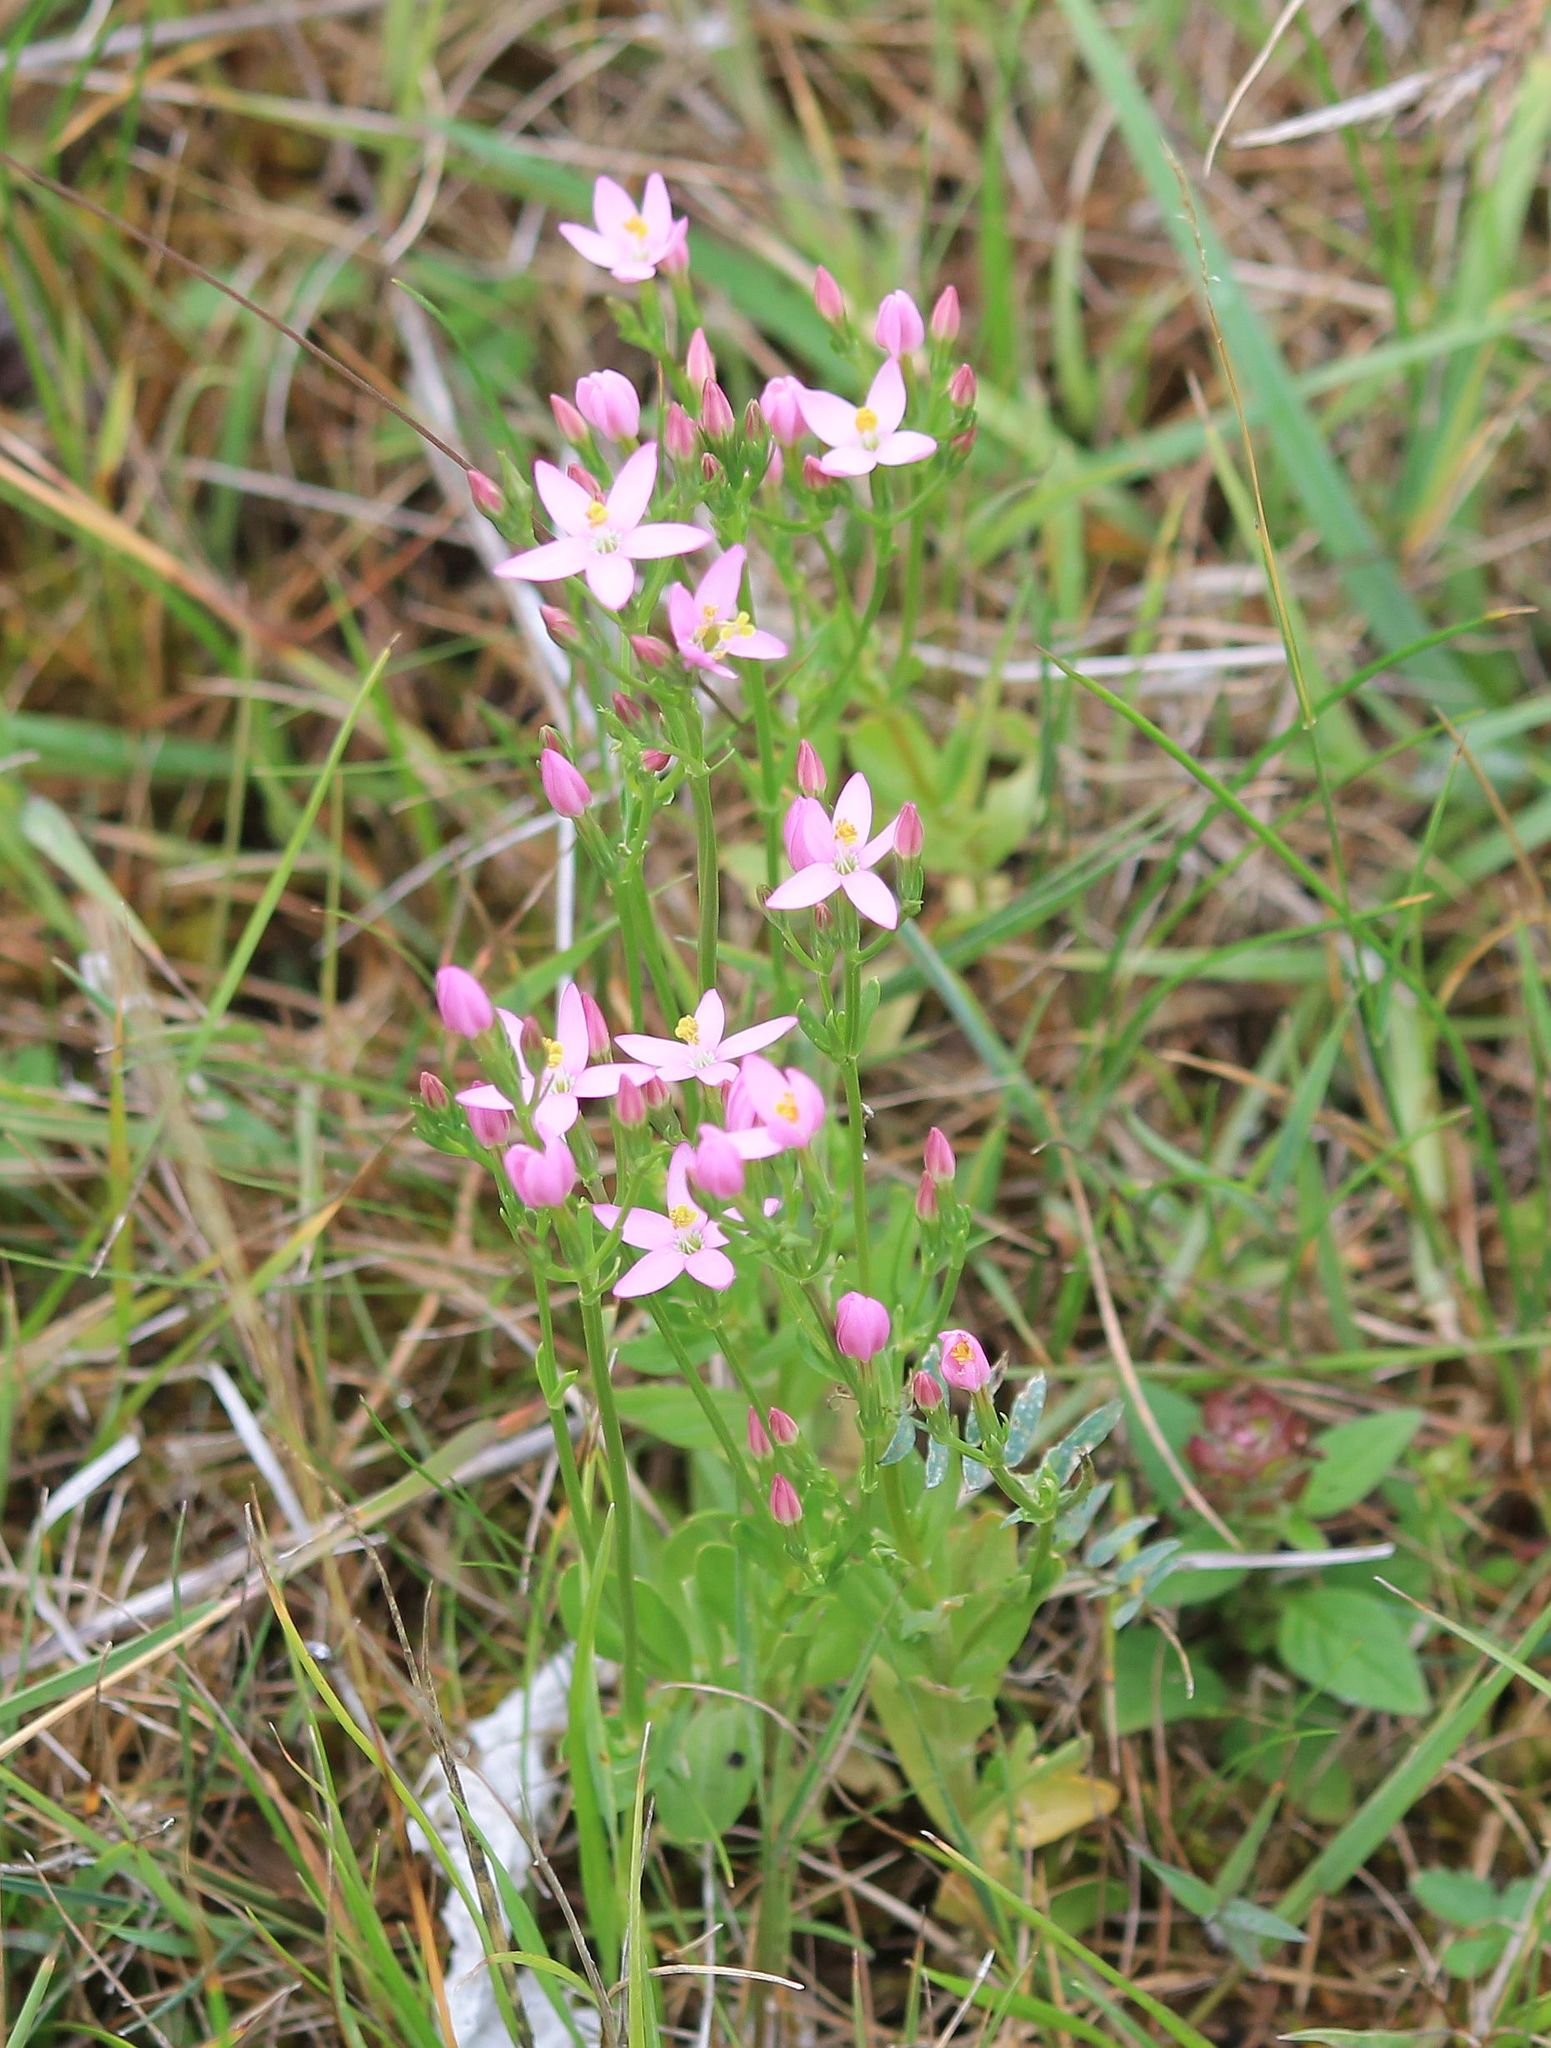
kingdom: Plantae
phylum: Tracheophyta
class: Magnoliopsida
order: Gentianales
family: Gentianaceae
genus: Centaurium
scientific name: Centaurium erythraea
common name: Common centaury
